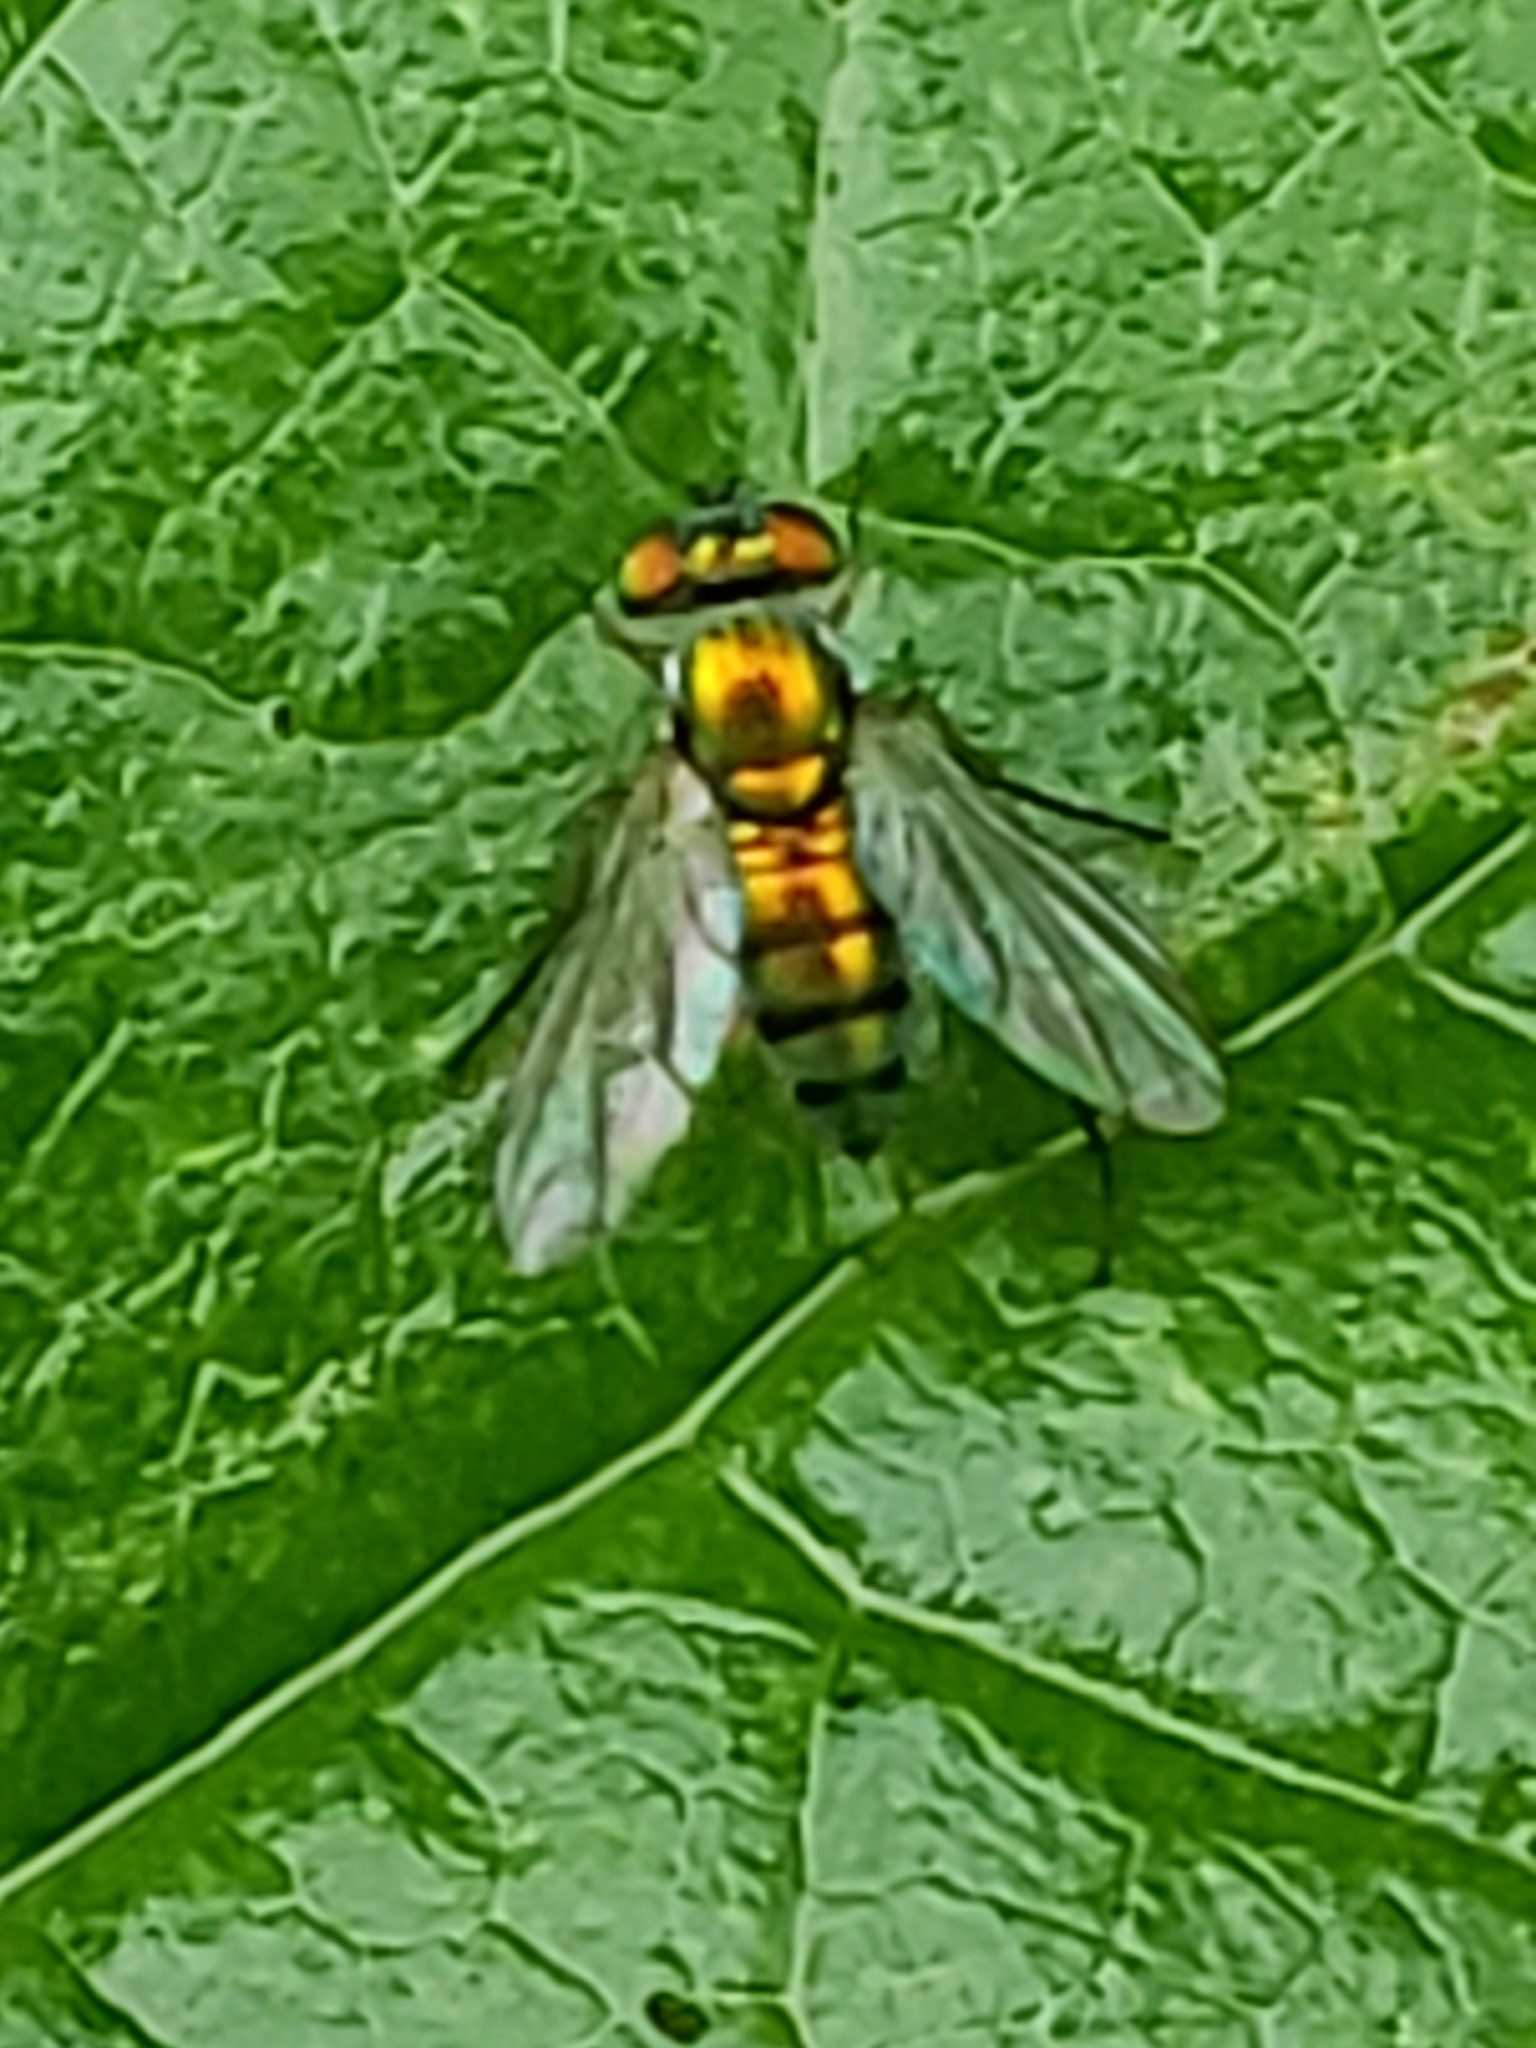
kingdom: Animalia
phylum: Arthropoda
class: Insecta
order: Diptera
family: Dolichopodidae
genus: Condylostylus
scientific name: Condylostylus
